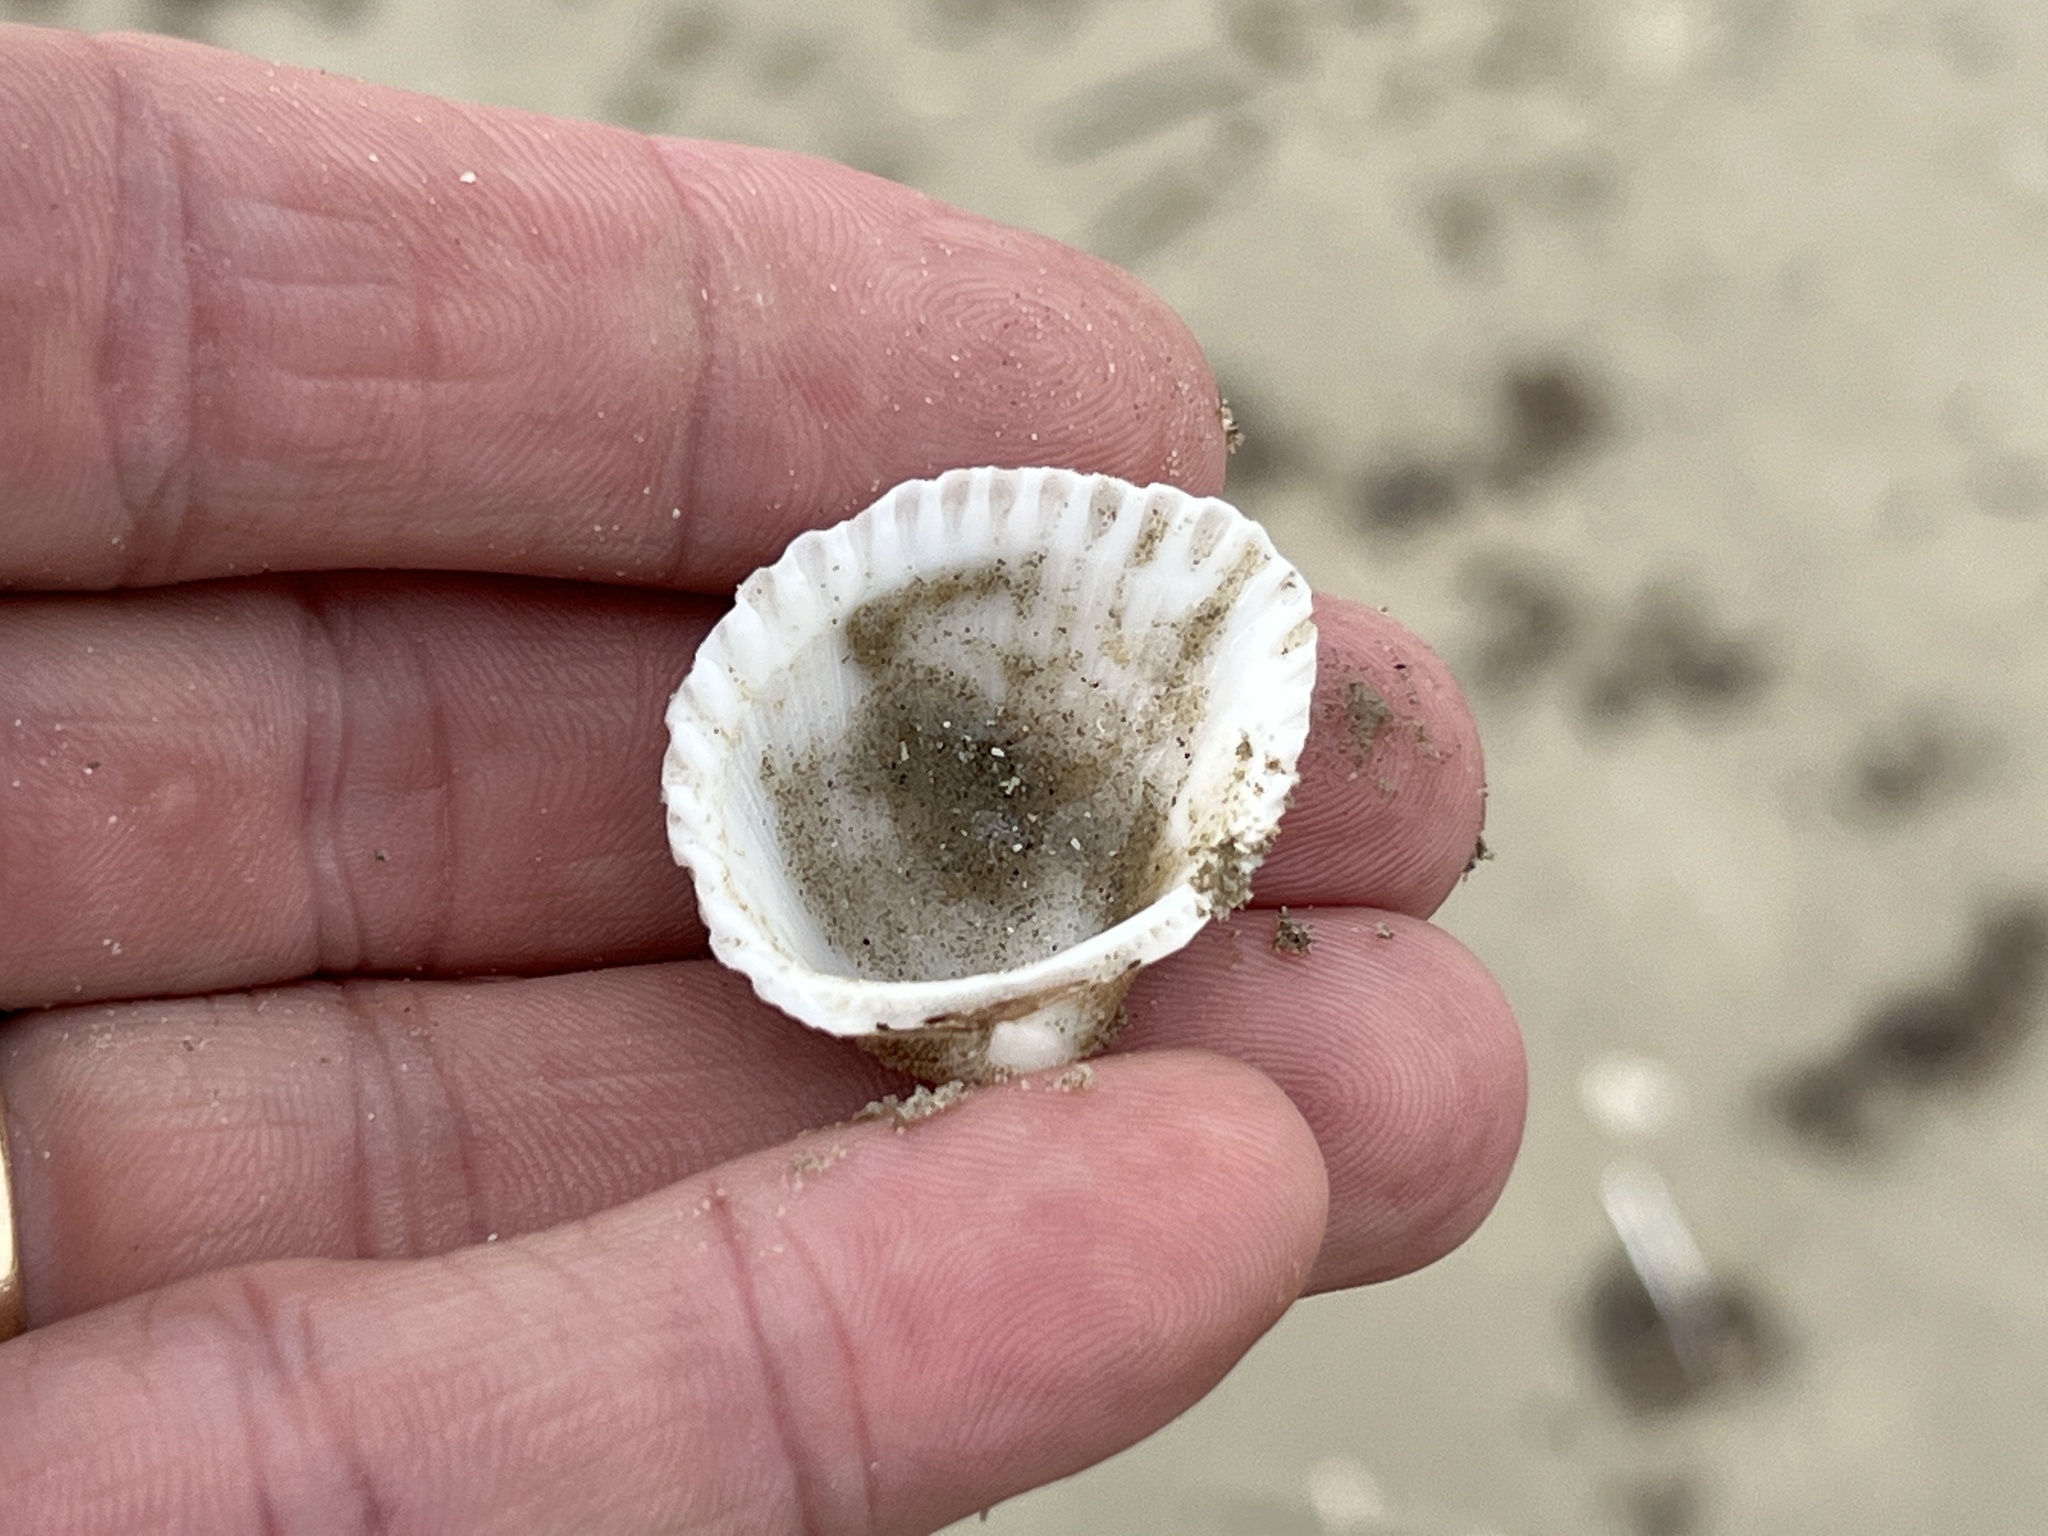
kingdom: Animalia
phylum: Mollusca
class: Bivalvia
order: Arcida
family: Arcidae
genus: Anadara
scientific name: Anadara brasiliana
